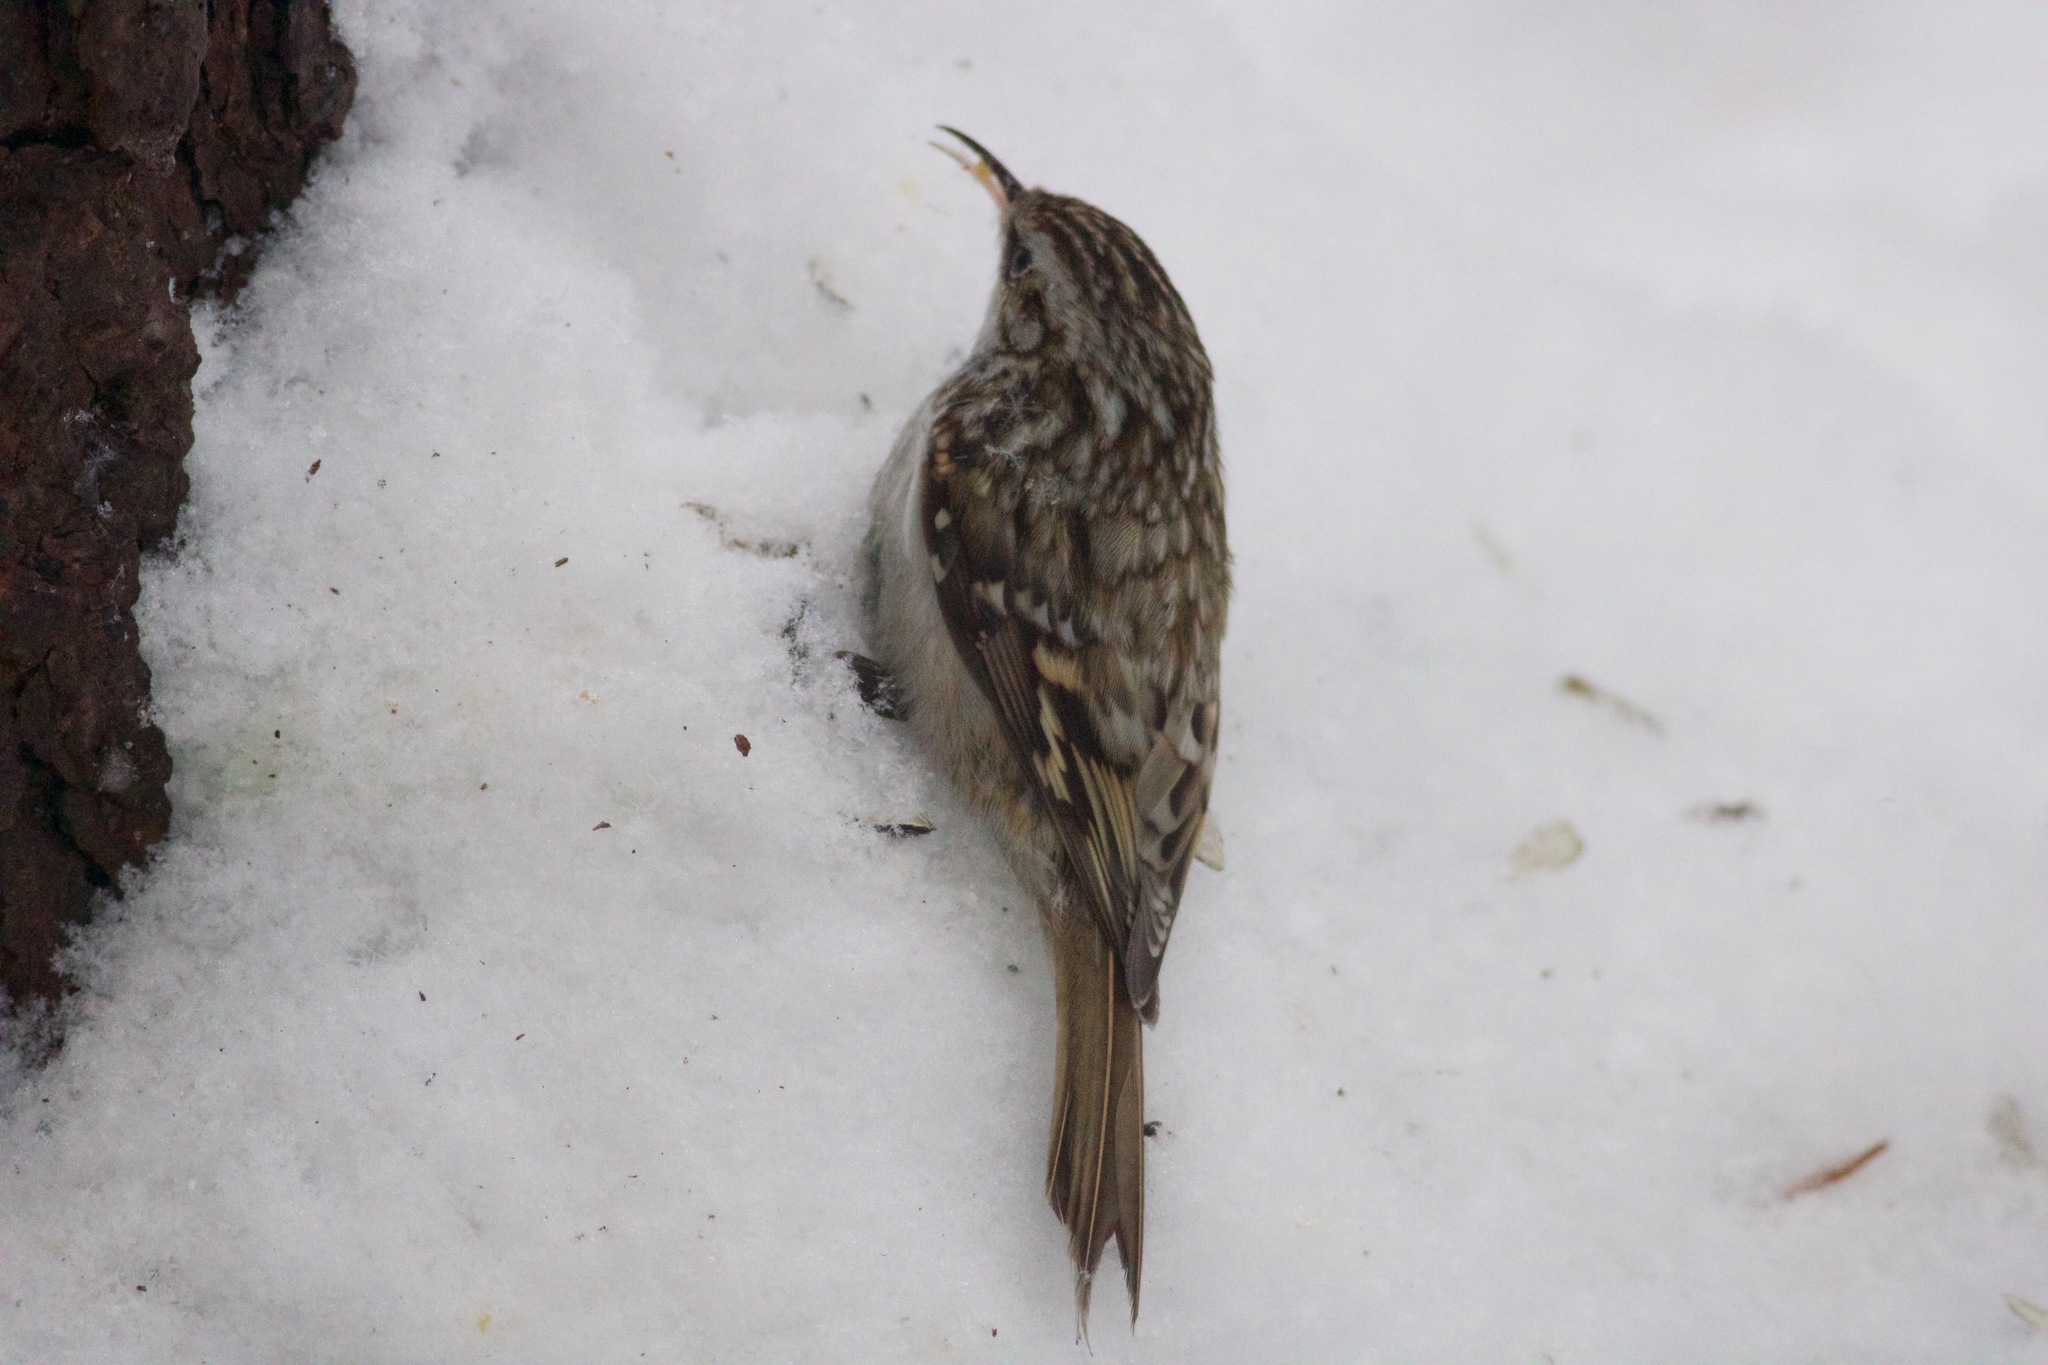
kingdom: Animalia
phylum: Chordata
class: Aves
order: Passeriformes
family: Certhiidae
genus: Certhia
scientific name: Certhia familiaris
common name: Eurasian treecreeper
